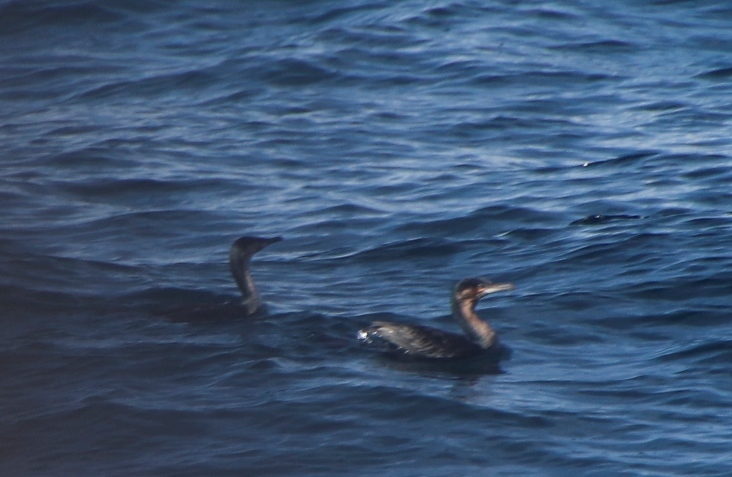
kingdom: Animalia
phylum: Chordata
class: Aves
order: Suliformes
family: Phalacrocoracidae
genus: Phalacrocorax
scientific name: Phalacrocorax carbo
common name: Great cormorant
